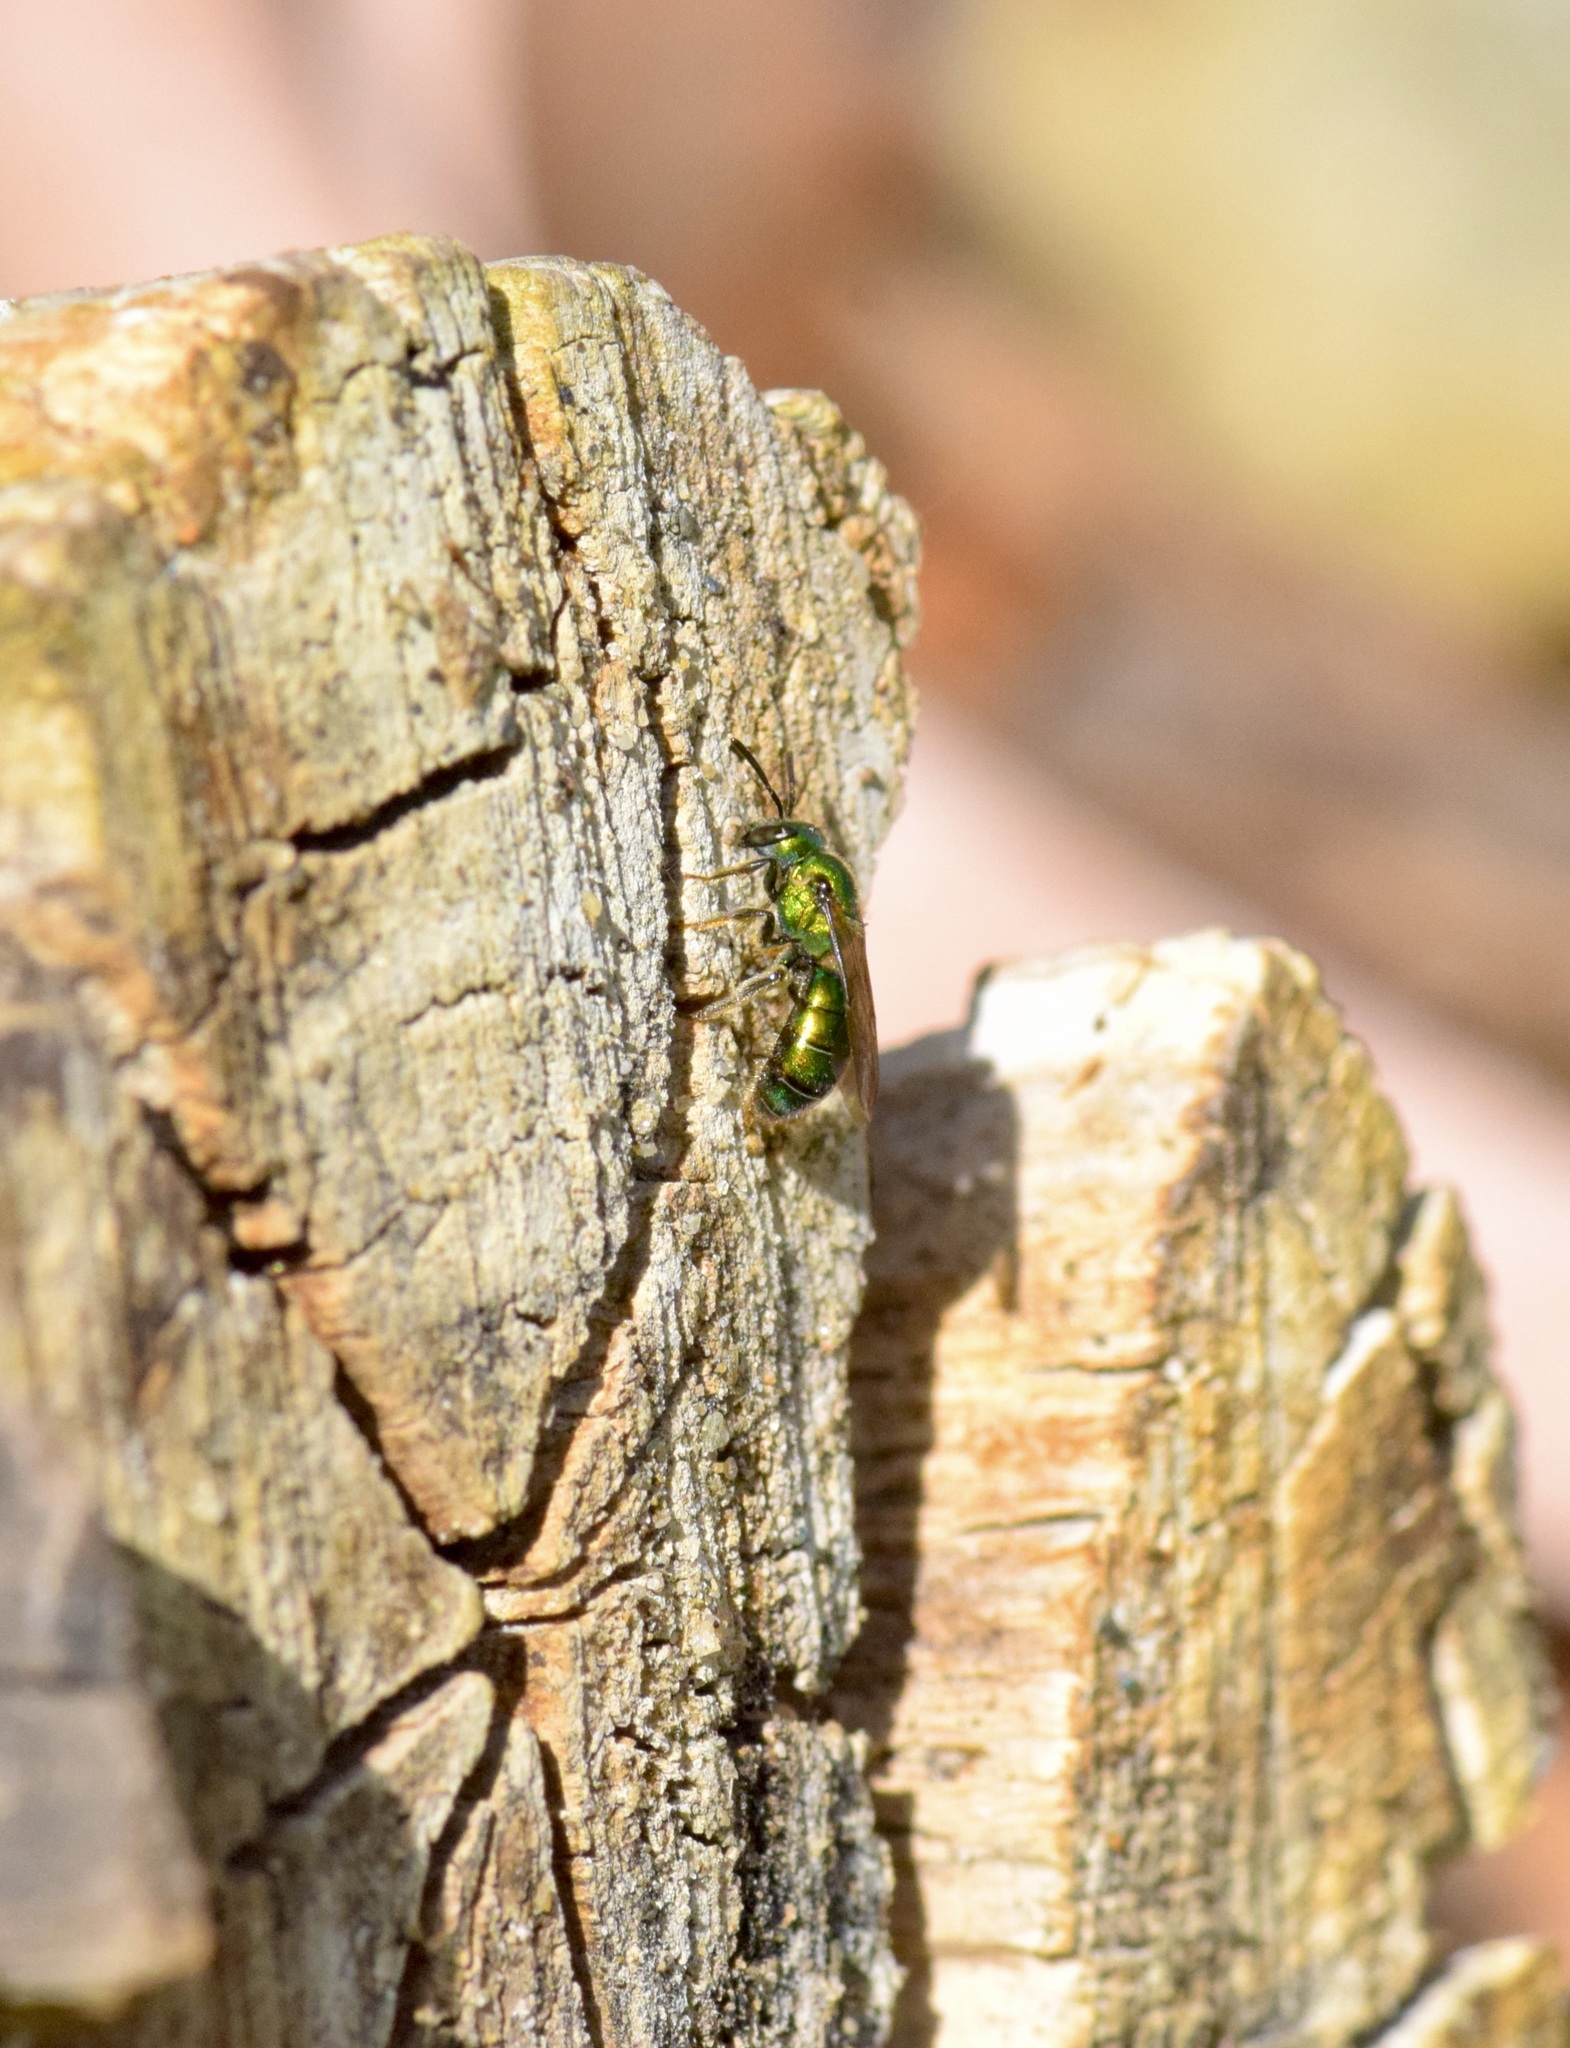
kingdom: Animalia
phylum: Arthropoda
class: Insecta
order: Hymenoptera
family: Halictidae
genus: Augochlora
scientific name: Augochlora pura
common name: Pure green sweat bee
